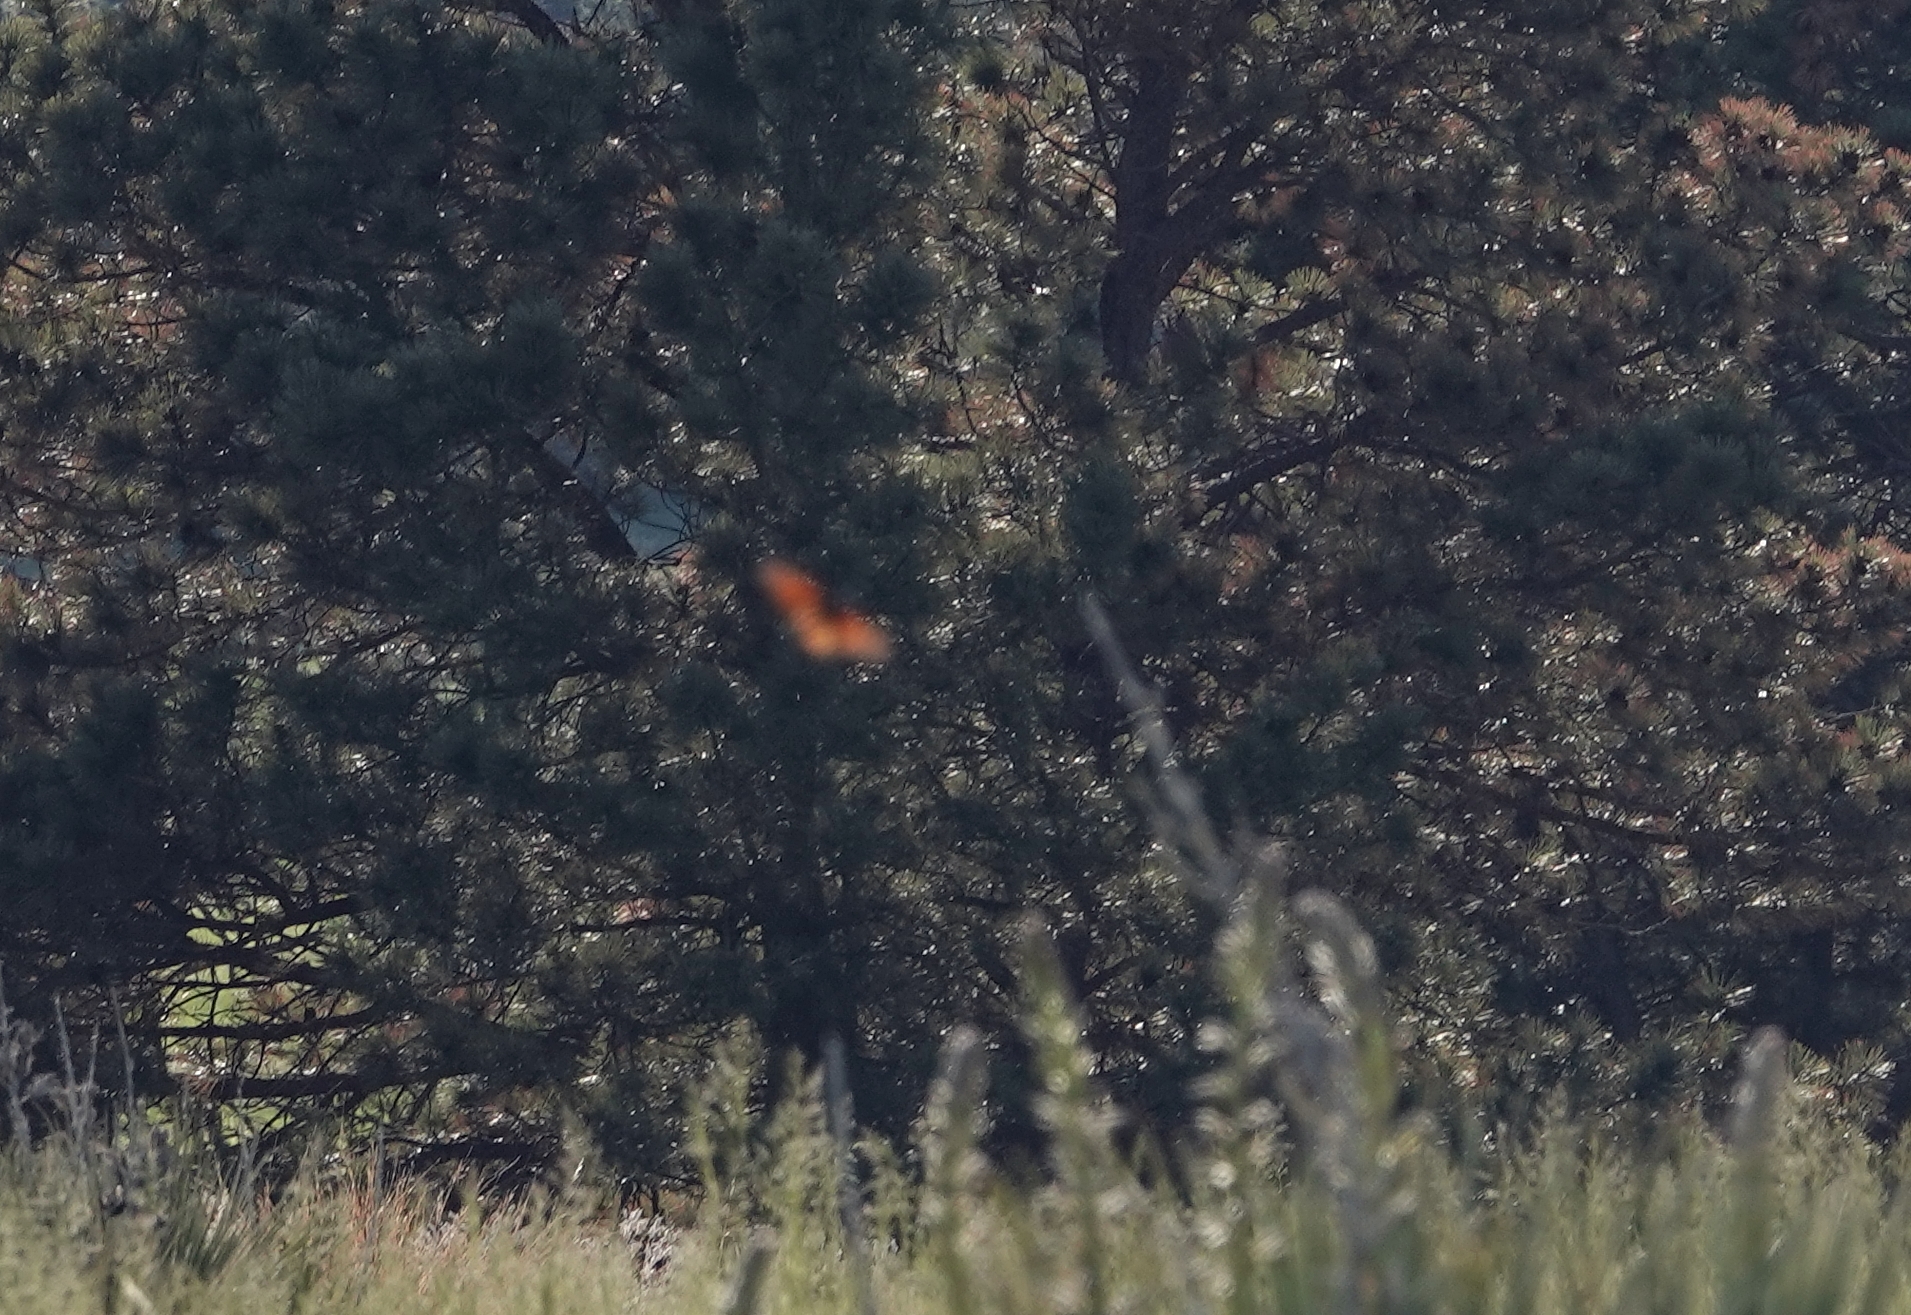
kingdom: Animalia
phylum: Arthropoda
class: Insecta
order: Lepidoptera
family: Nymphalidae
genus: Danaus
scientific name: Danaus plexippus
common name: Monarch
